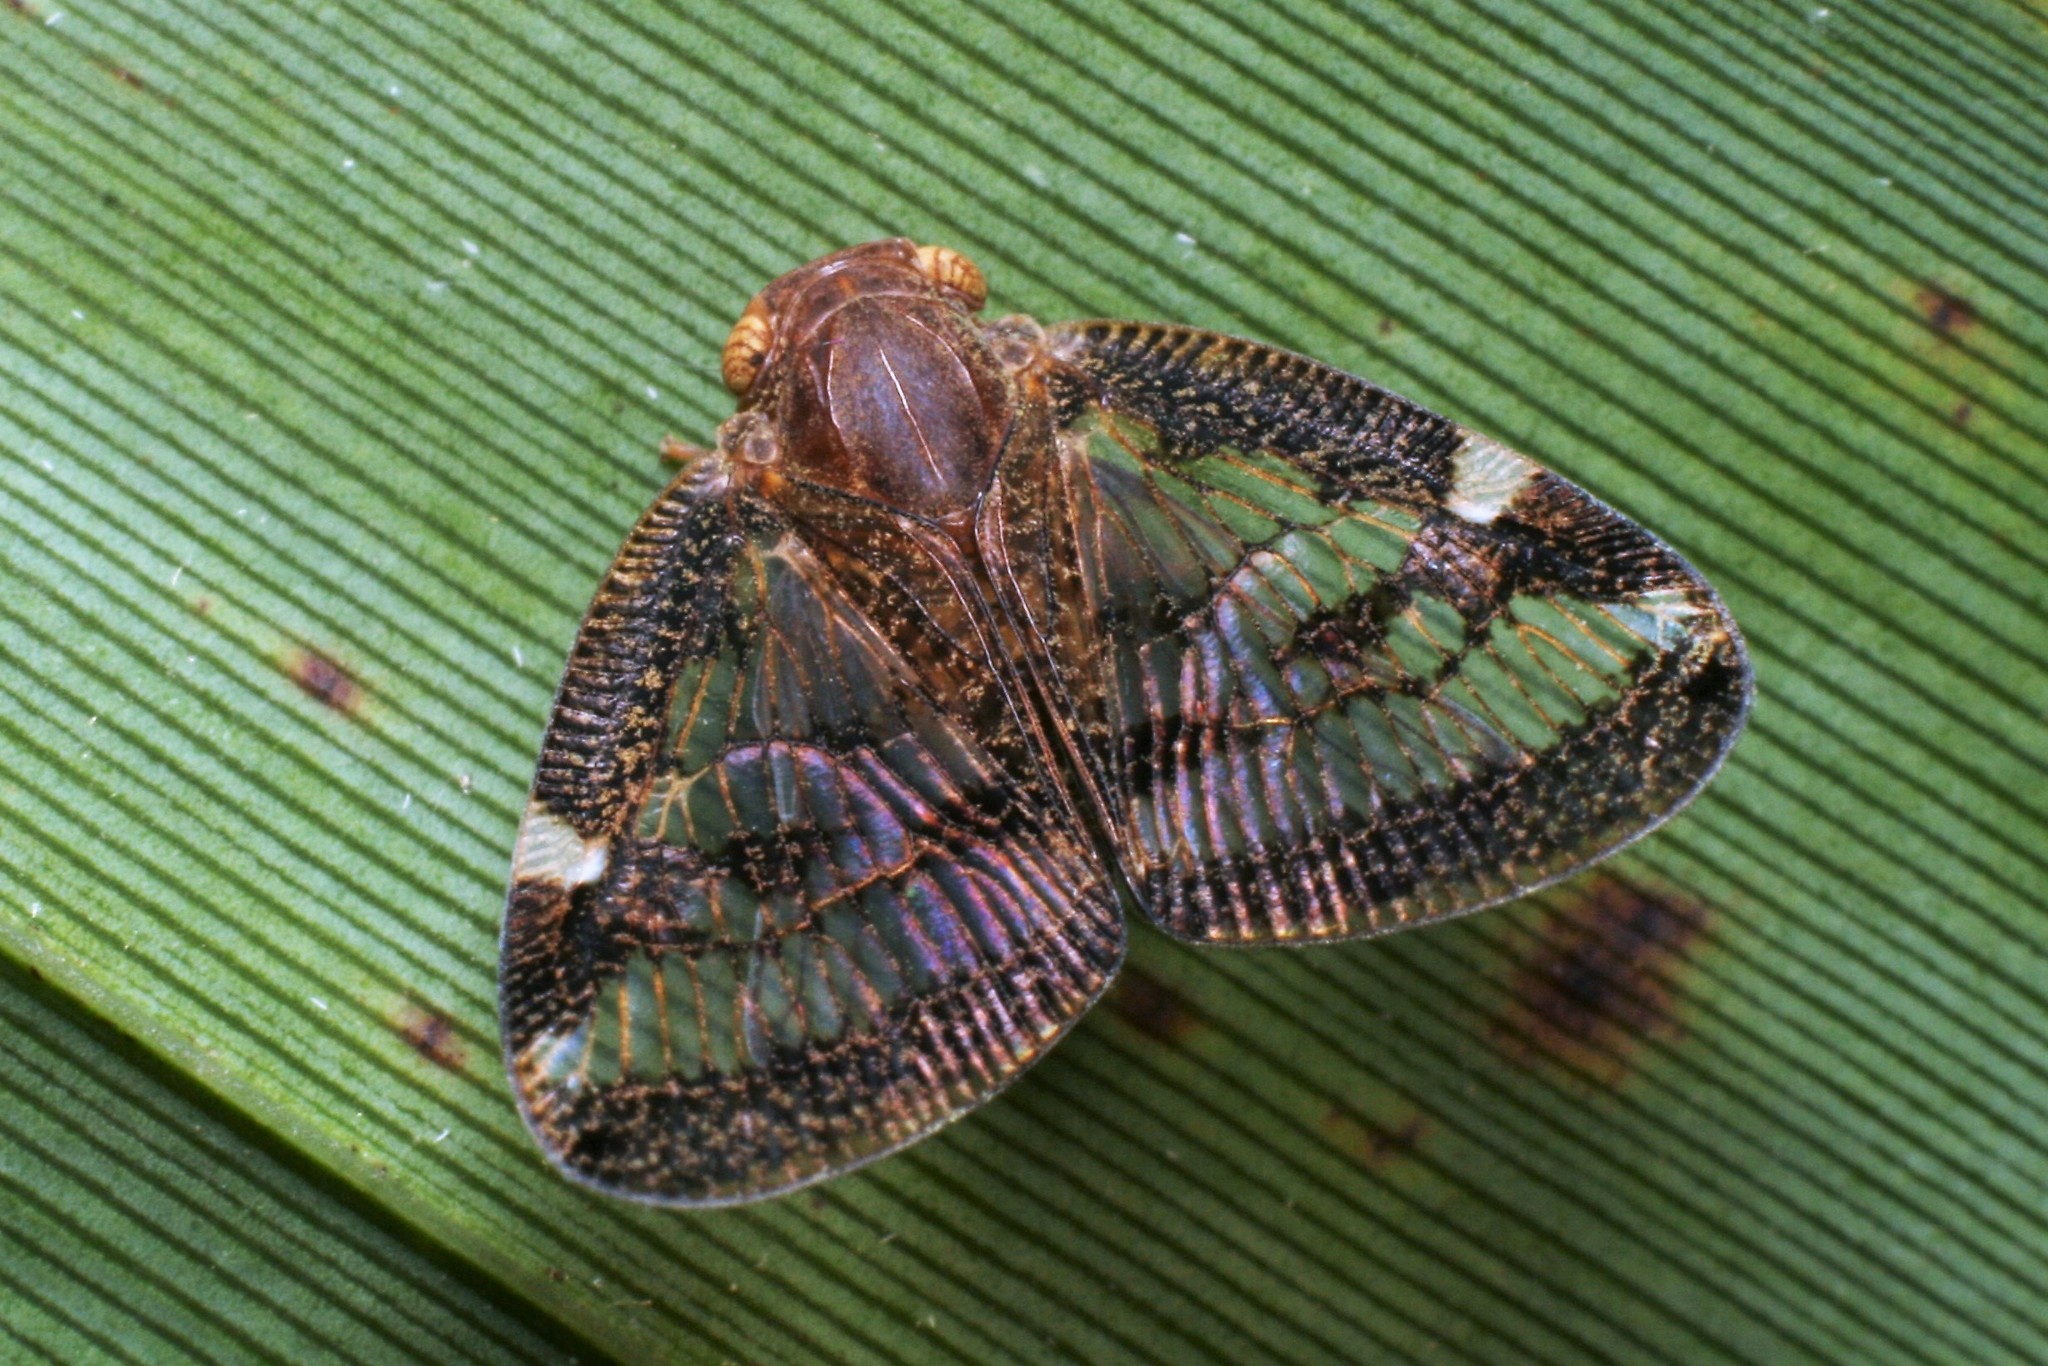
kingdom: Animalia
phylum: Arthropoda
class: Insecta
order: Hemiptera
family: Ricaniidae
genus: Scolypopa
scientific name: Scolypopa australis
